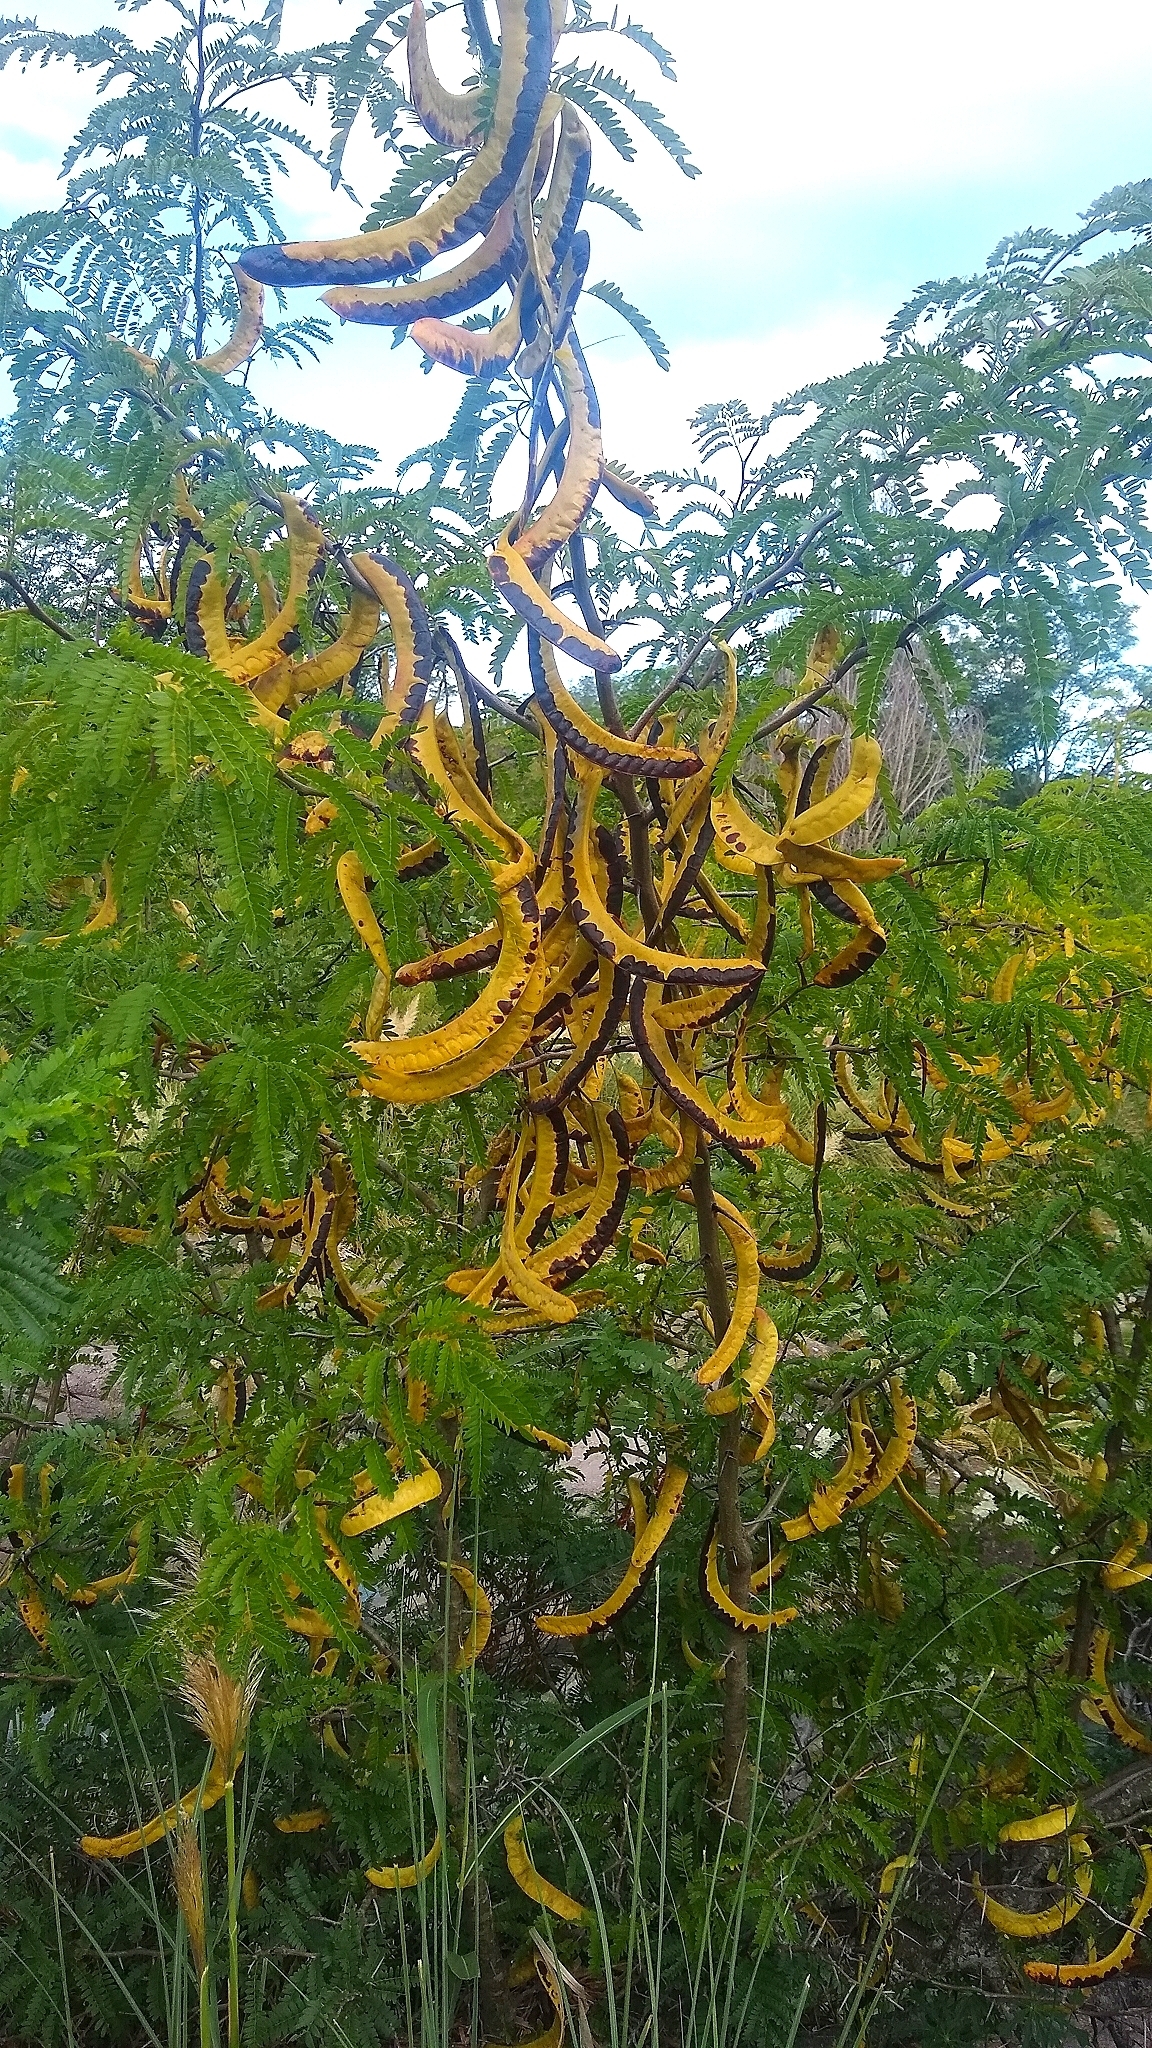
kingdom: Plantae
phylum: Tracheophyta
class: Magnoliopsida
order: Fabales
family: Fabaceae
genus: Gleditsia
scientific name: Gleditsia triacanthos
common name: Common honeylocust
